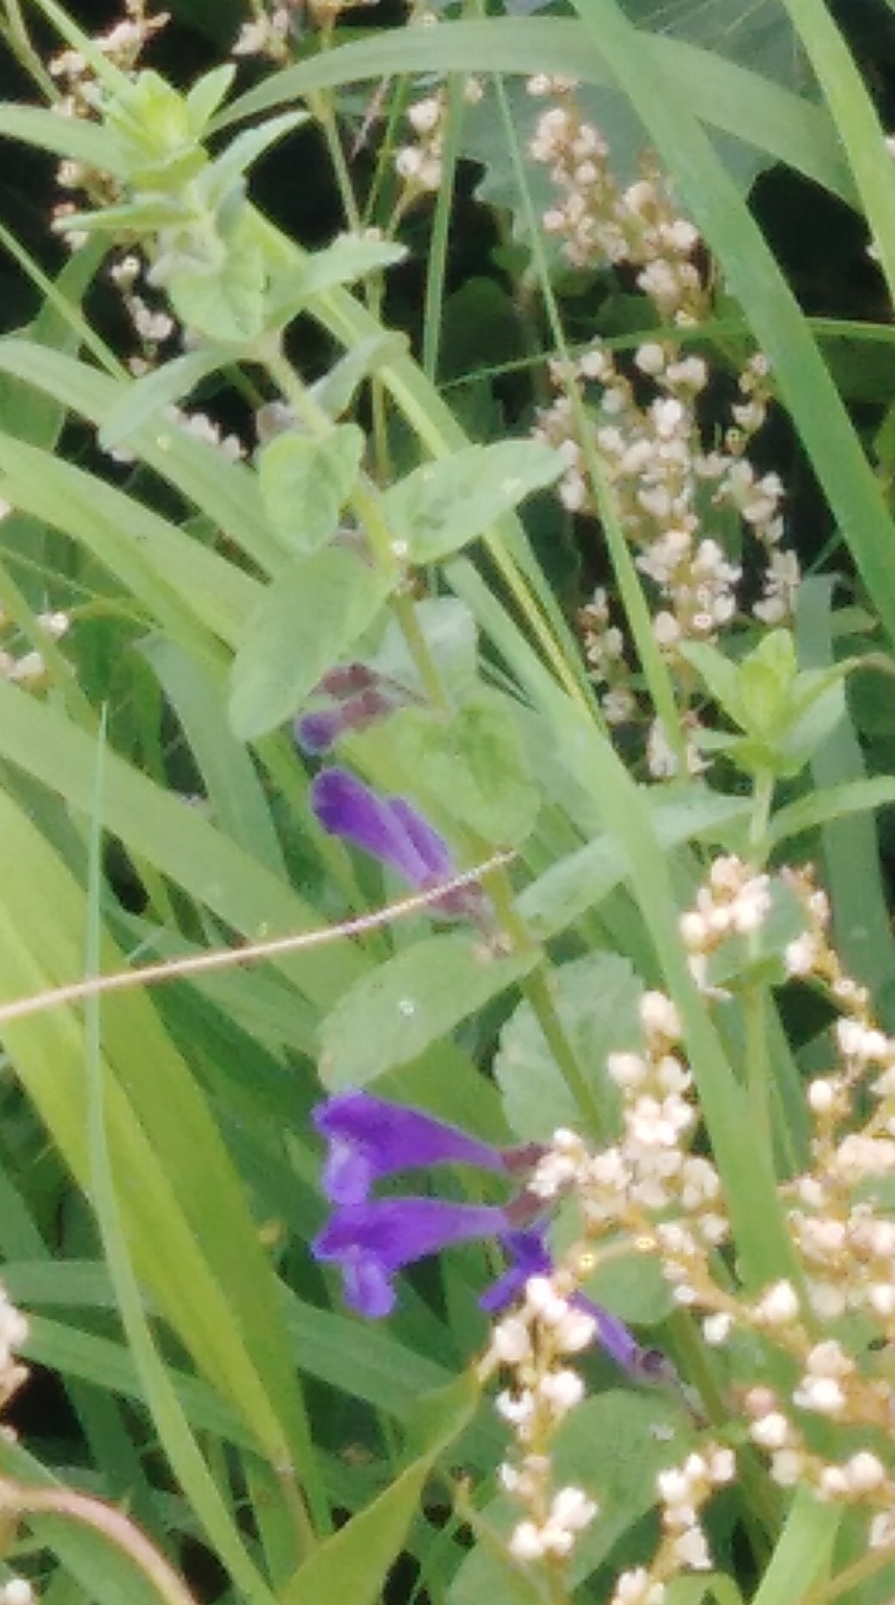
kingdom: Plantae
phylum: Tracheophyta
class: Magnoliopsida
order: Lamiales
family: Lamiaceae
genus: Scutellaria
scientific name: Scutellaria strigillosa
